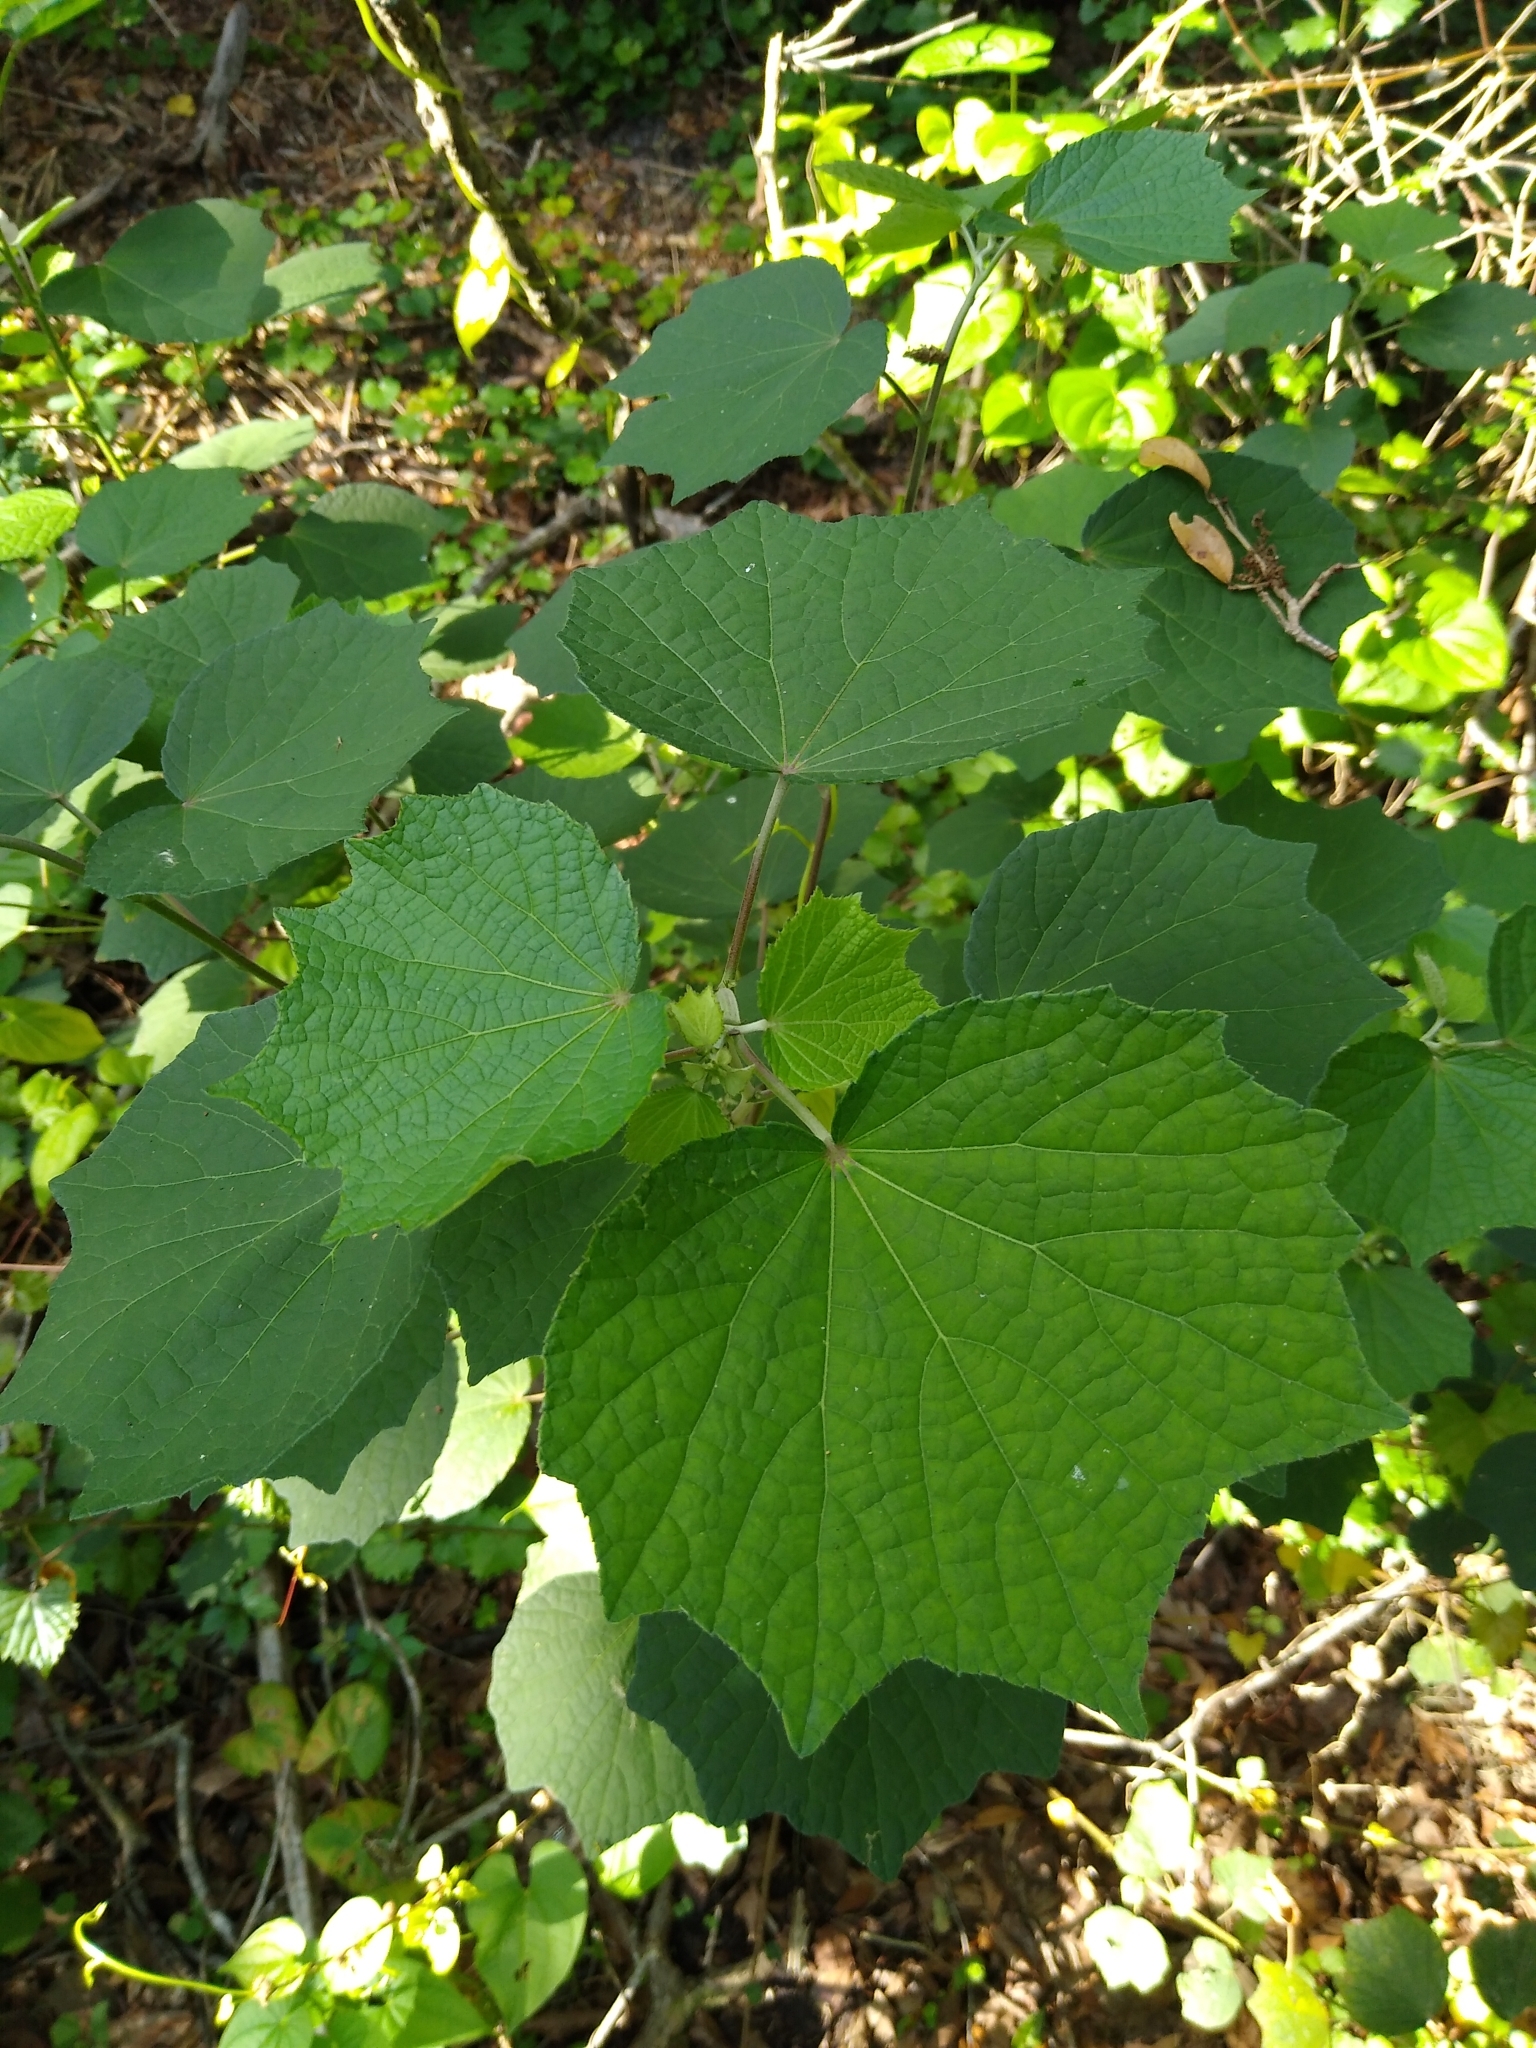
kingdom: Plantae
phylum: Tracheophyta
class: Magnoliopsida
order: Malvales
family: Malvaceae
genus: Urena
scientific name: Urena lobata
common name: Caesarweed
